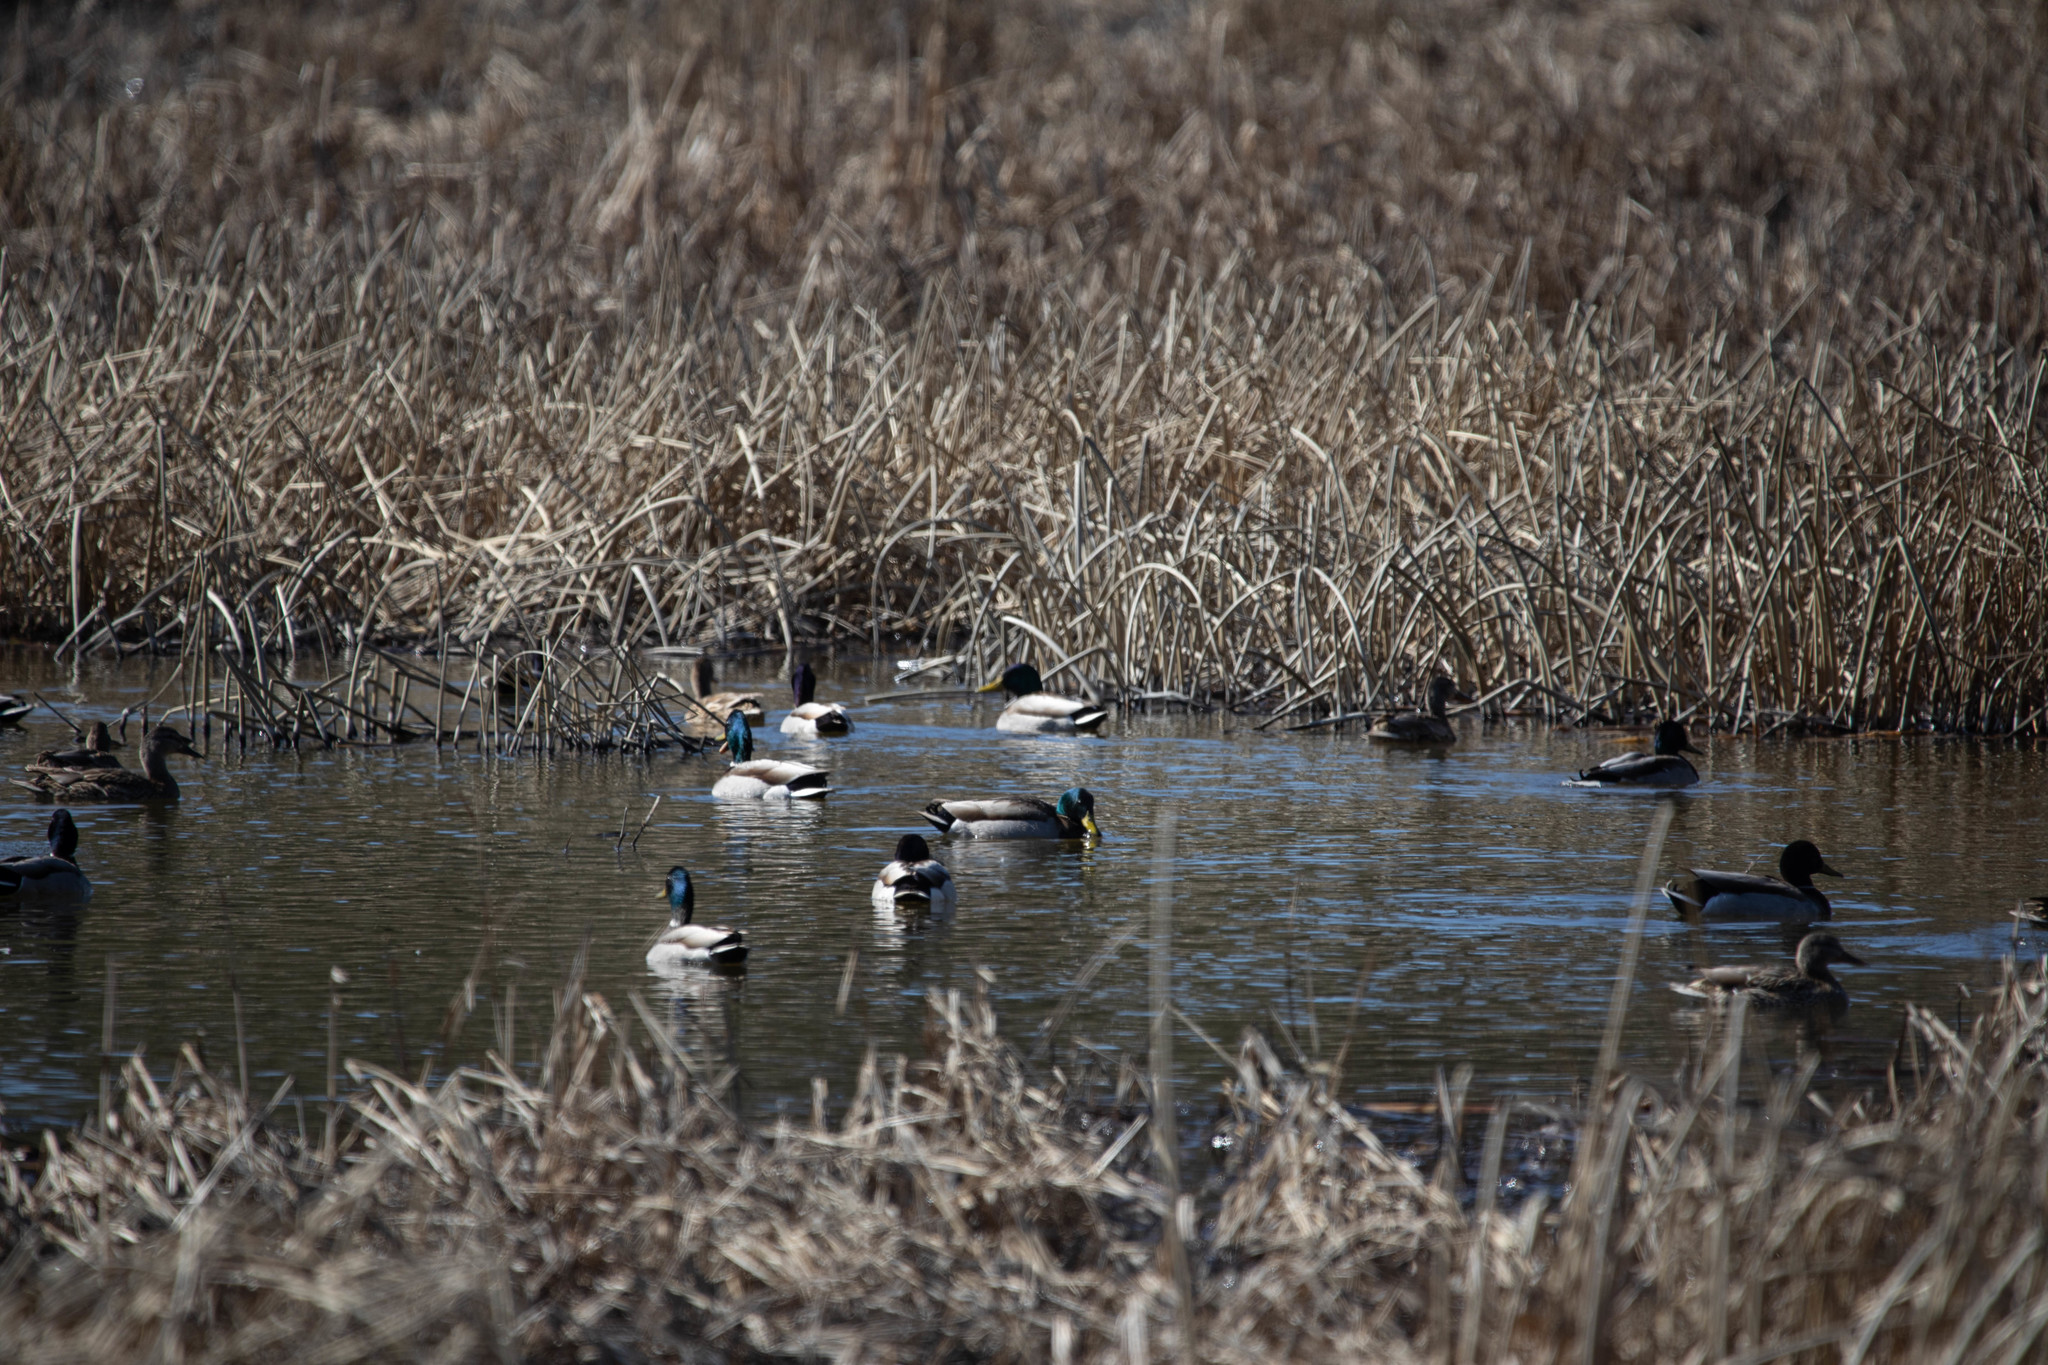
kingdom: Animalia
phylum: Chordata
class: Aves
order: Anseriformes
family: Anatidae
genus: Anas
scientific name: Anas platyrhynchos
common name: Mallard
